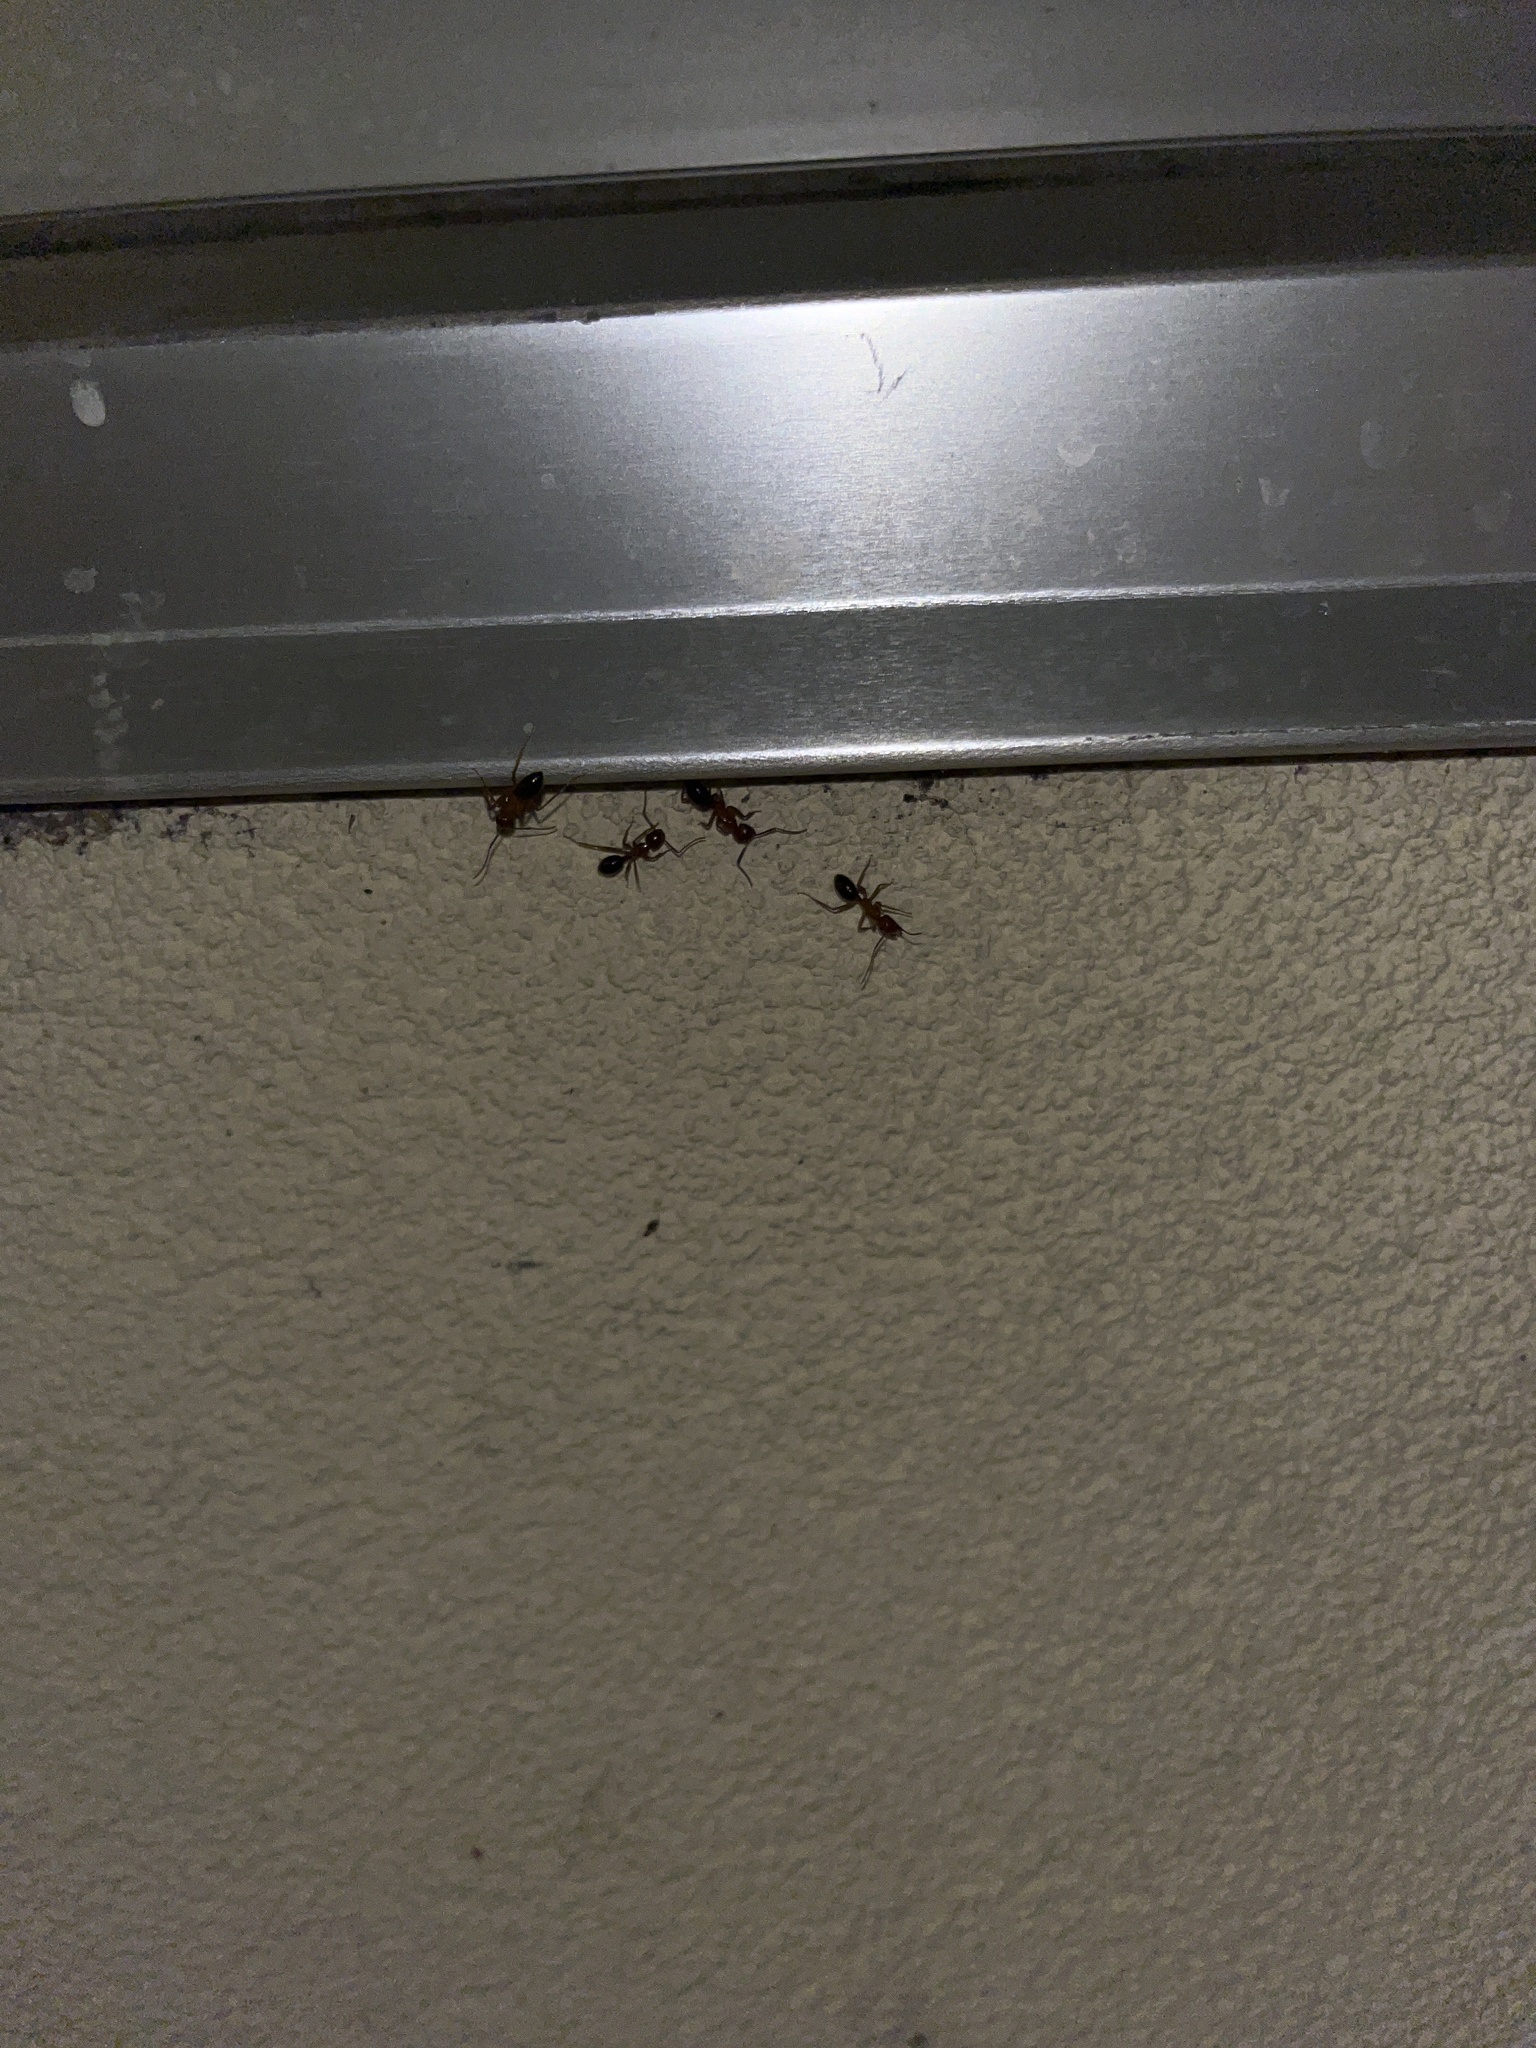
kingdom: Animalia
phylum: Arthropoda
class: Insecta
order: Hymenoptera
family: Formicidae
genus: Camponotus
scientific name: Camponotus floridanus
